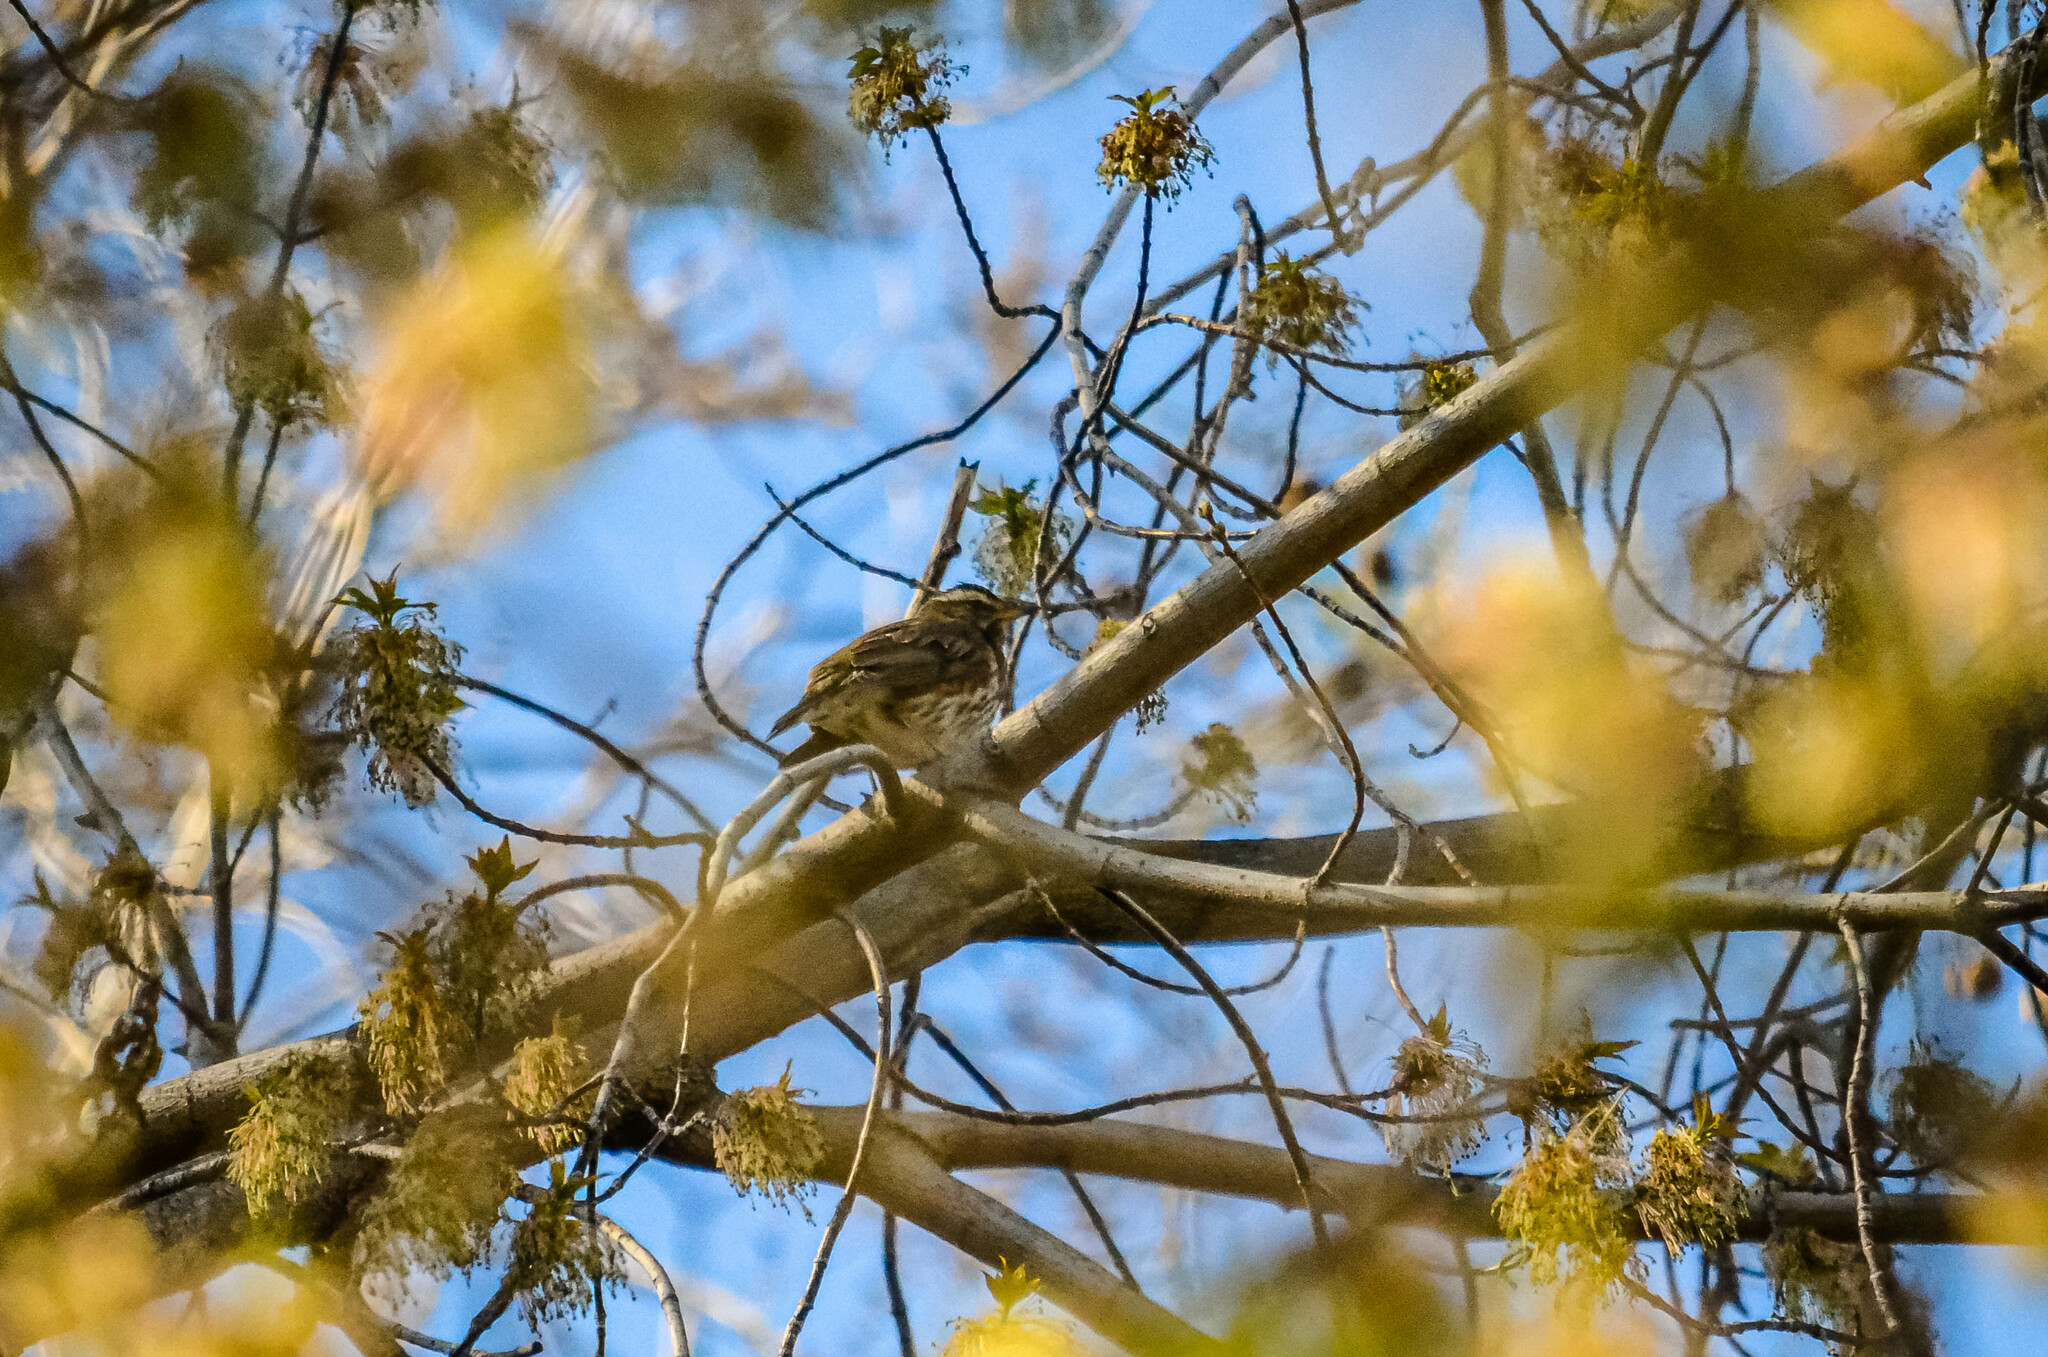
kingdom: Animalia
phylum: Chordata
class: Aves
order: Passeriformes
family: Turdidae
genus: Turdus
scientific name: Turdus iliacus
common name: Redwing
